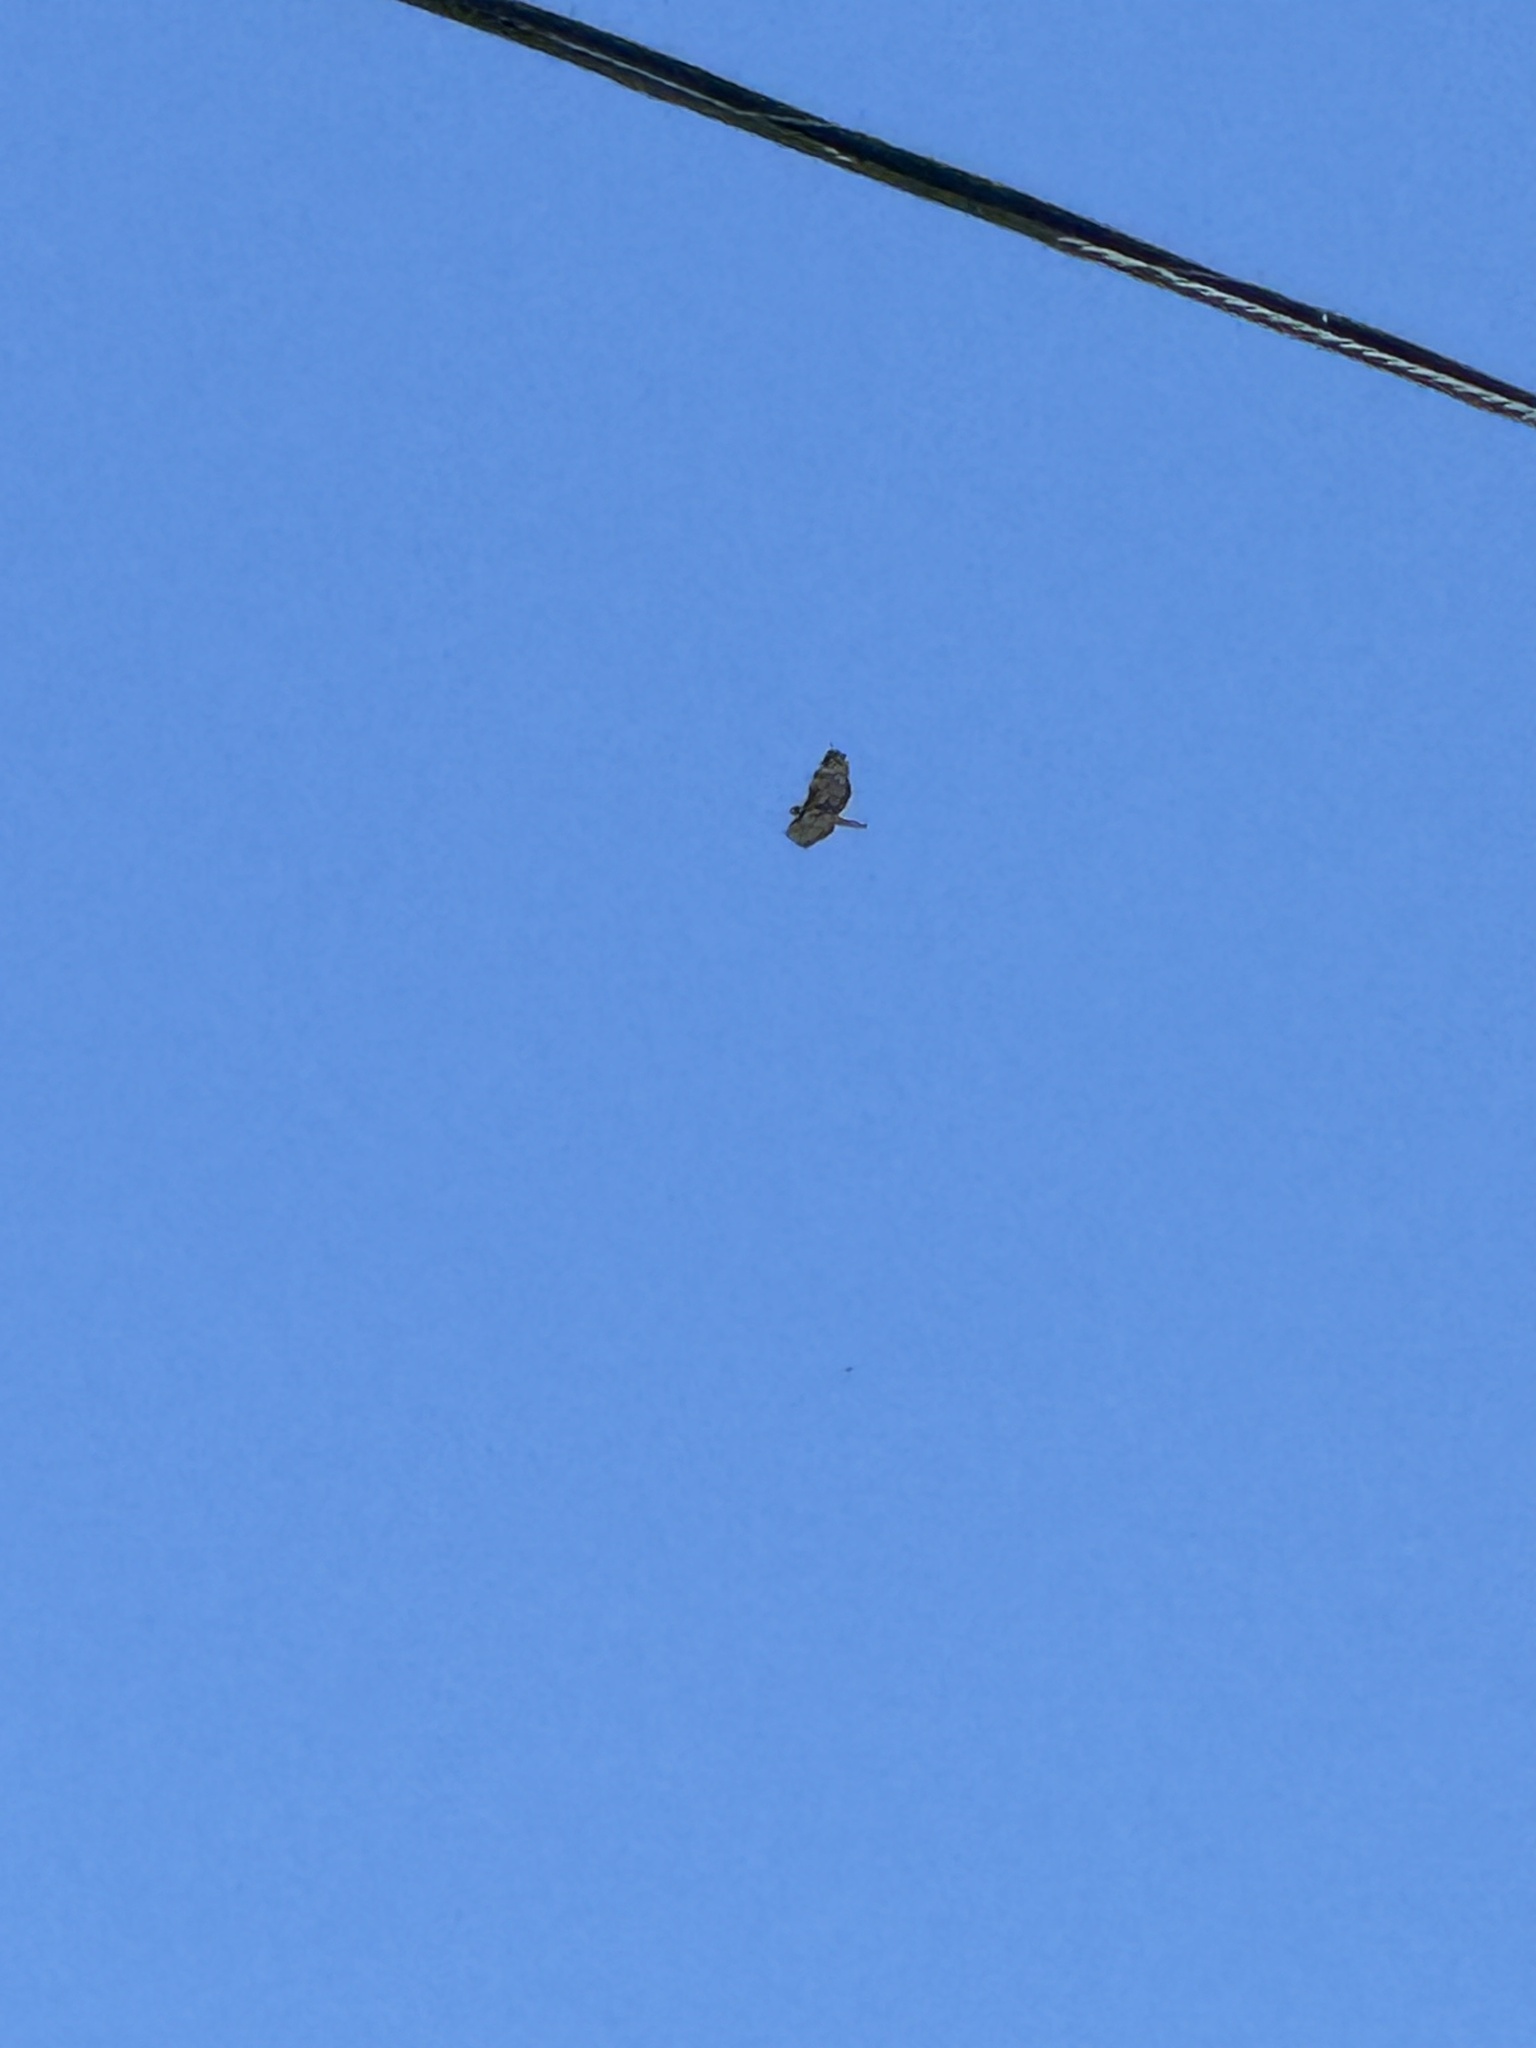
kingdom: Animalia
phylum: Chordata
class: Aves
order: Accipitriformes
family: Accipitridae
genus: Buteo
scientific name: Buteo jamaicensis
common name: Red-tailed hawk
